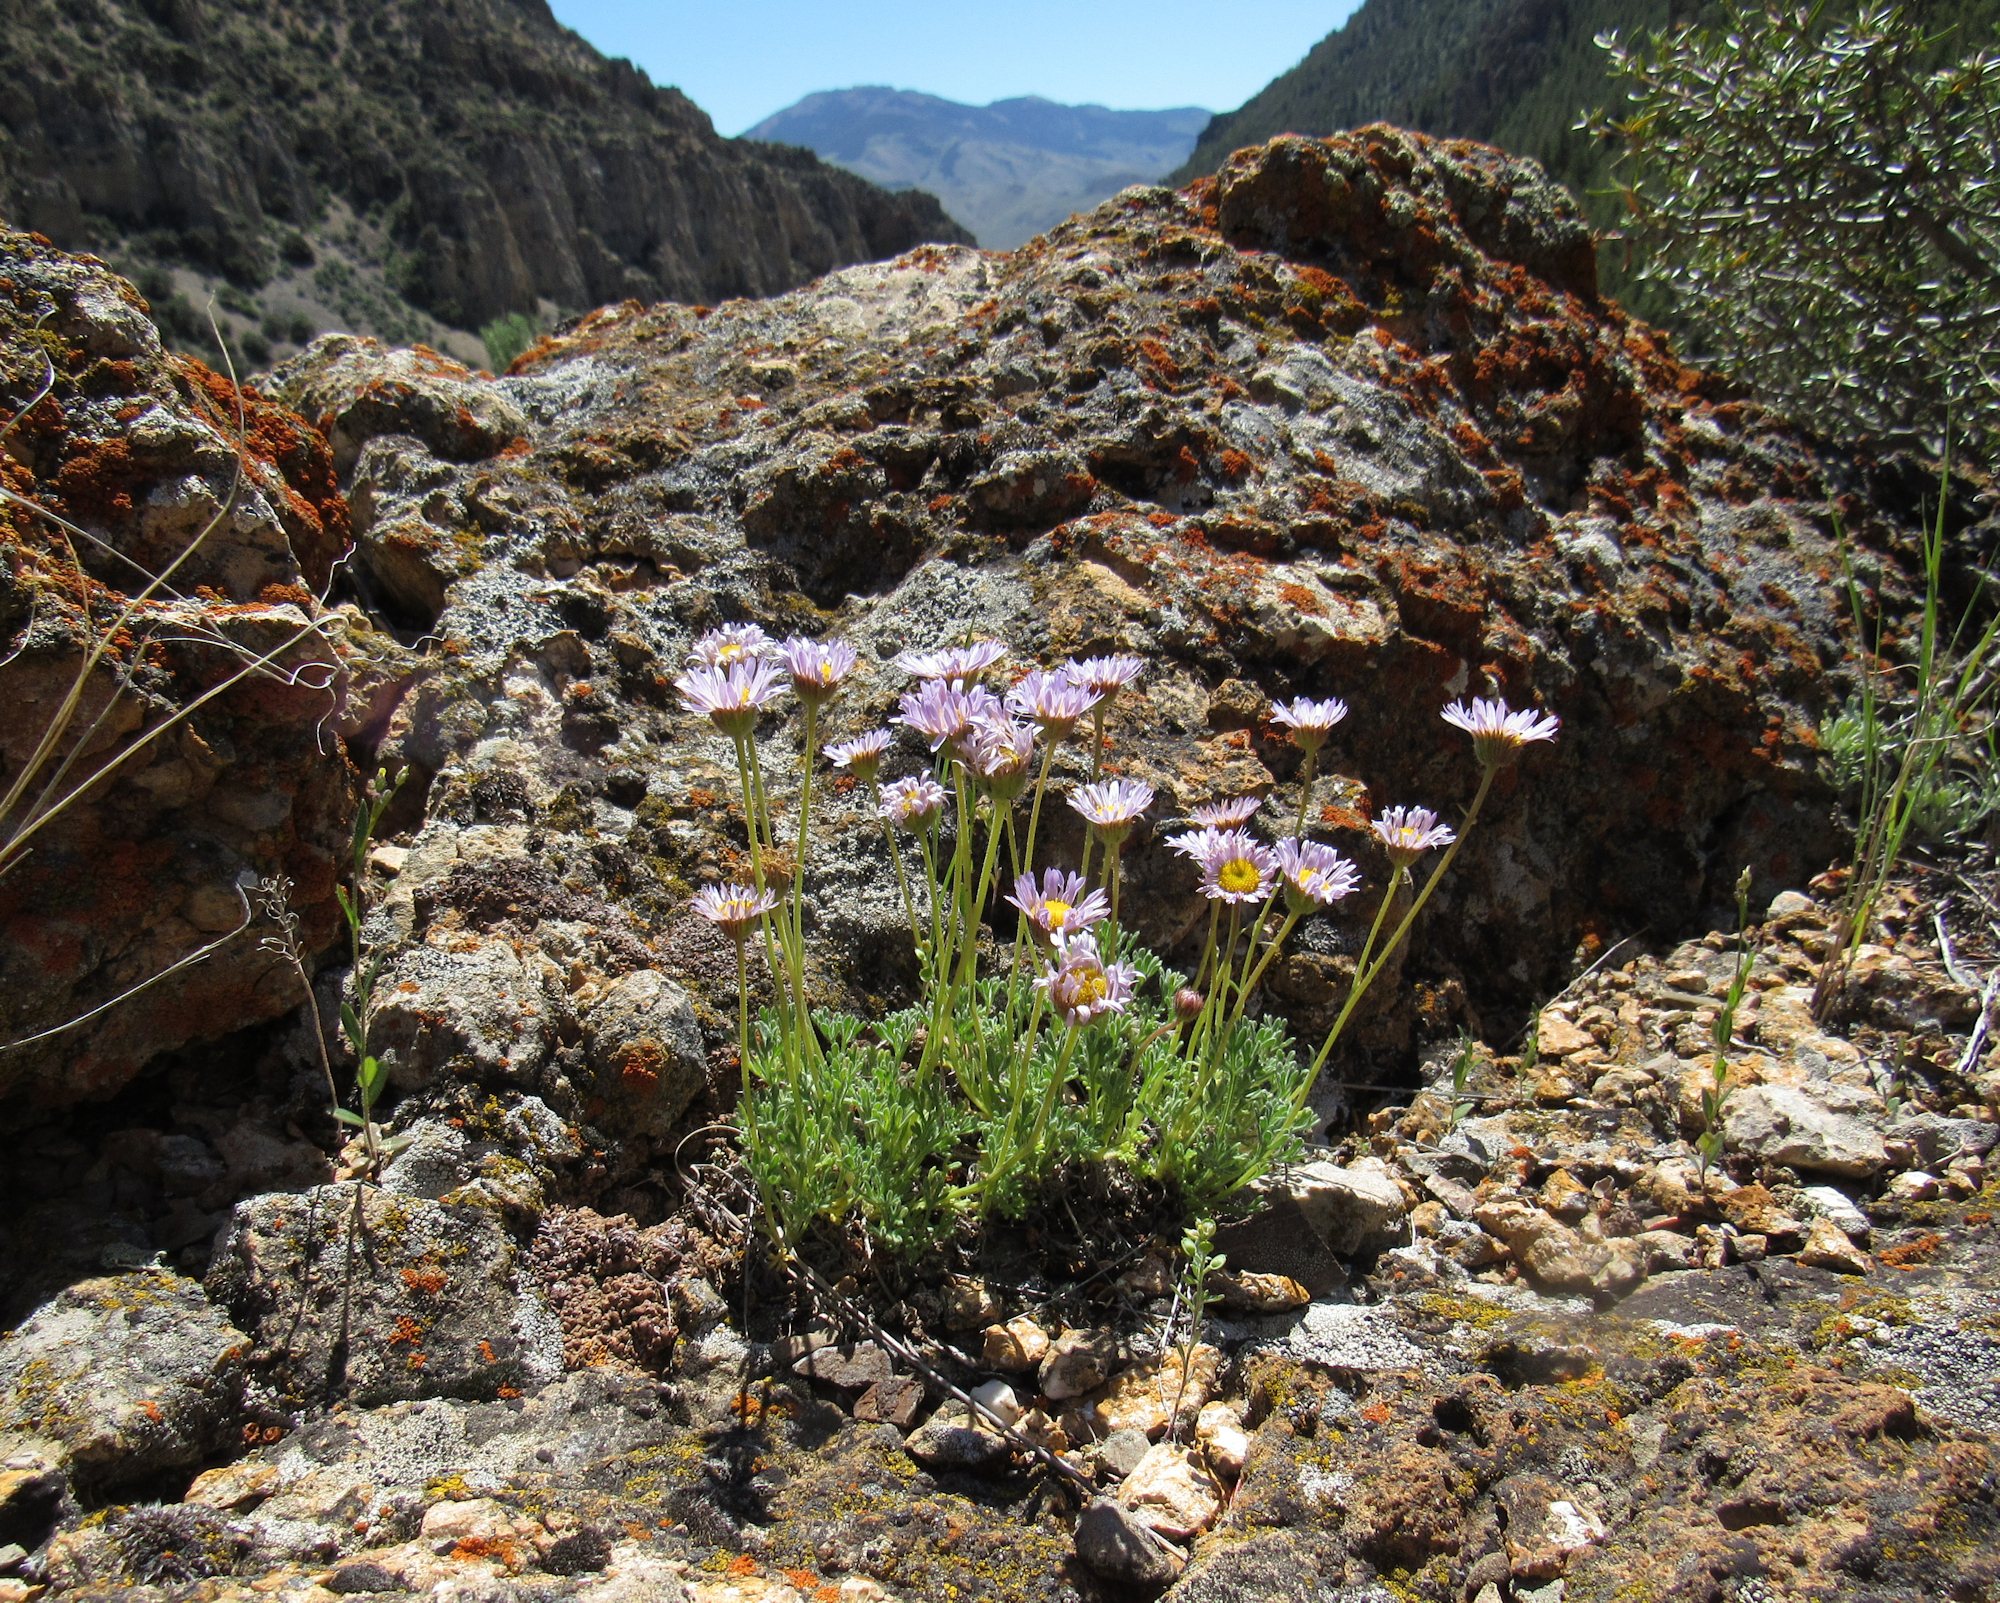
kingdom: Plantae
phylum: Tracheophyta
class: Magnoliopsida
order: Asterales
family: Asteraceae
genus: Erigeron
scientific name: Erigeron compositus
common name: Dwarf mountain fleabane
